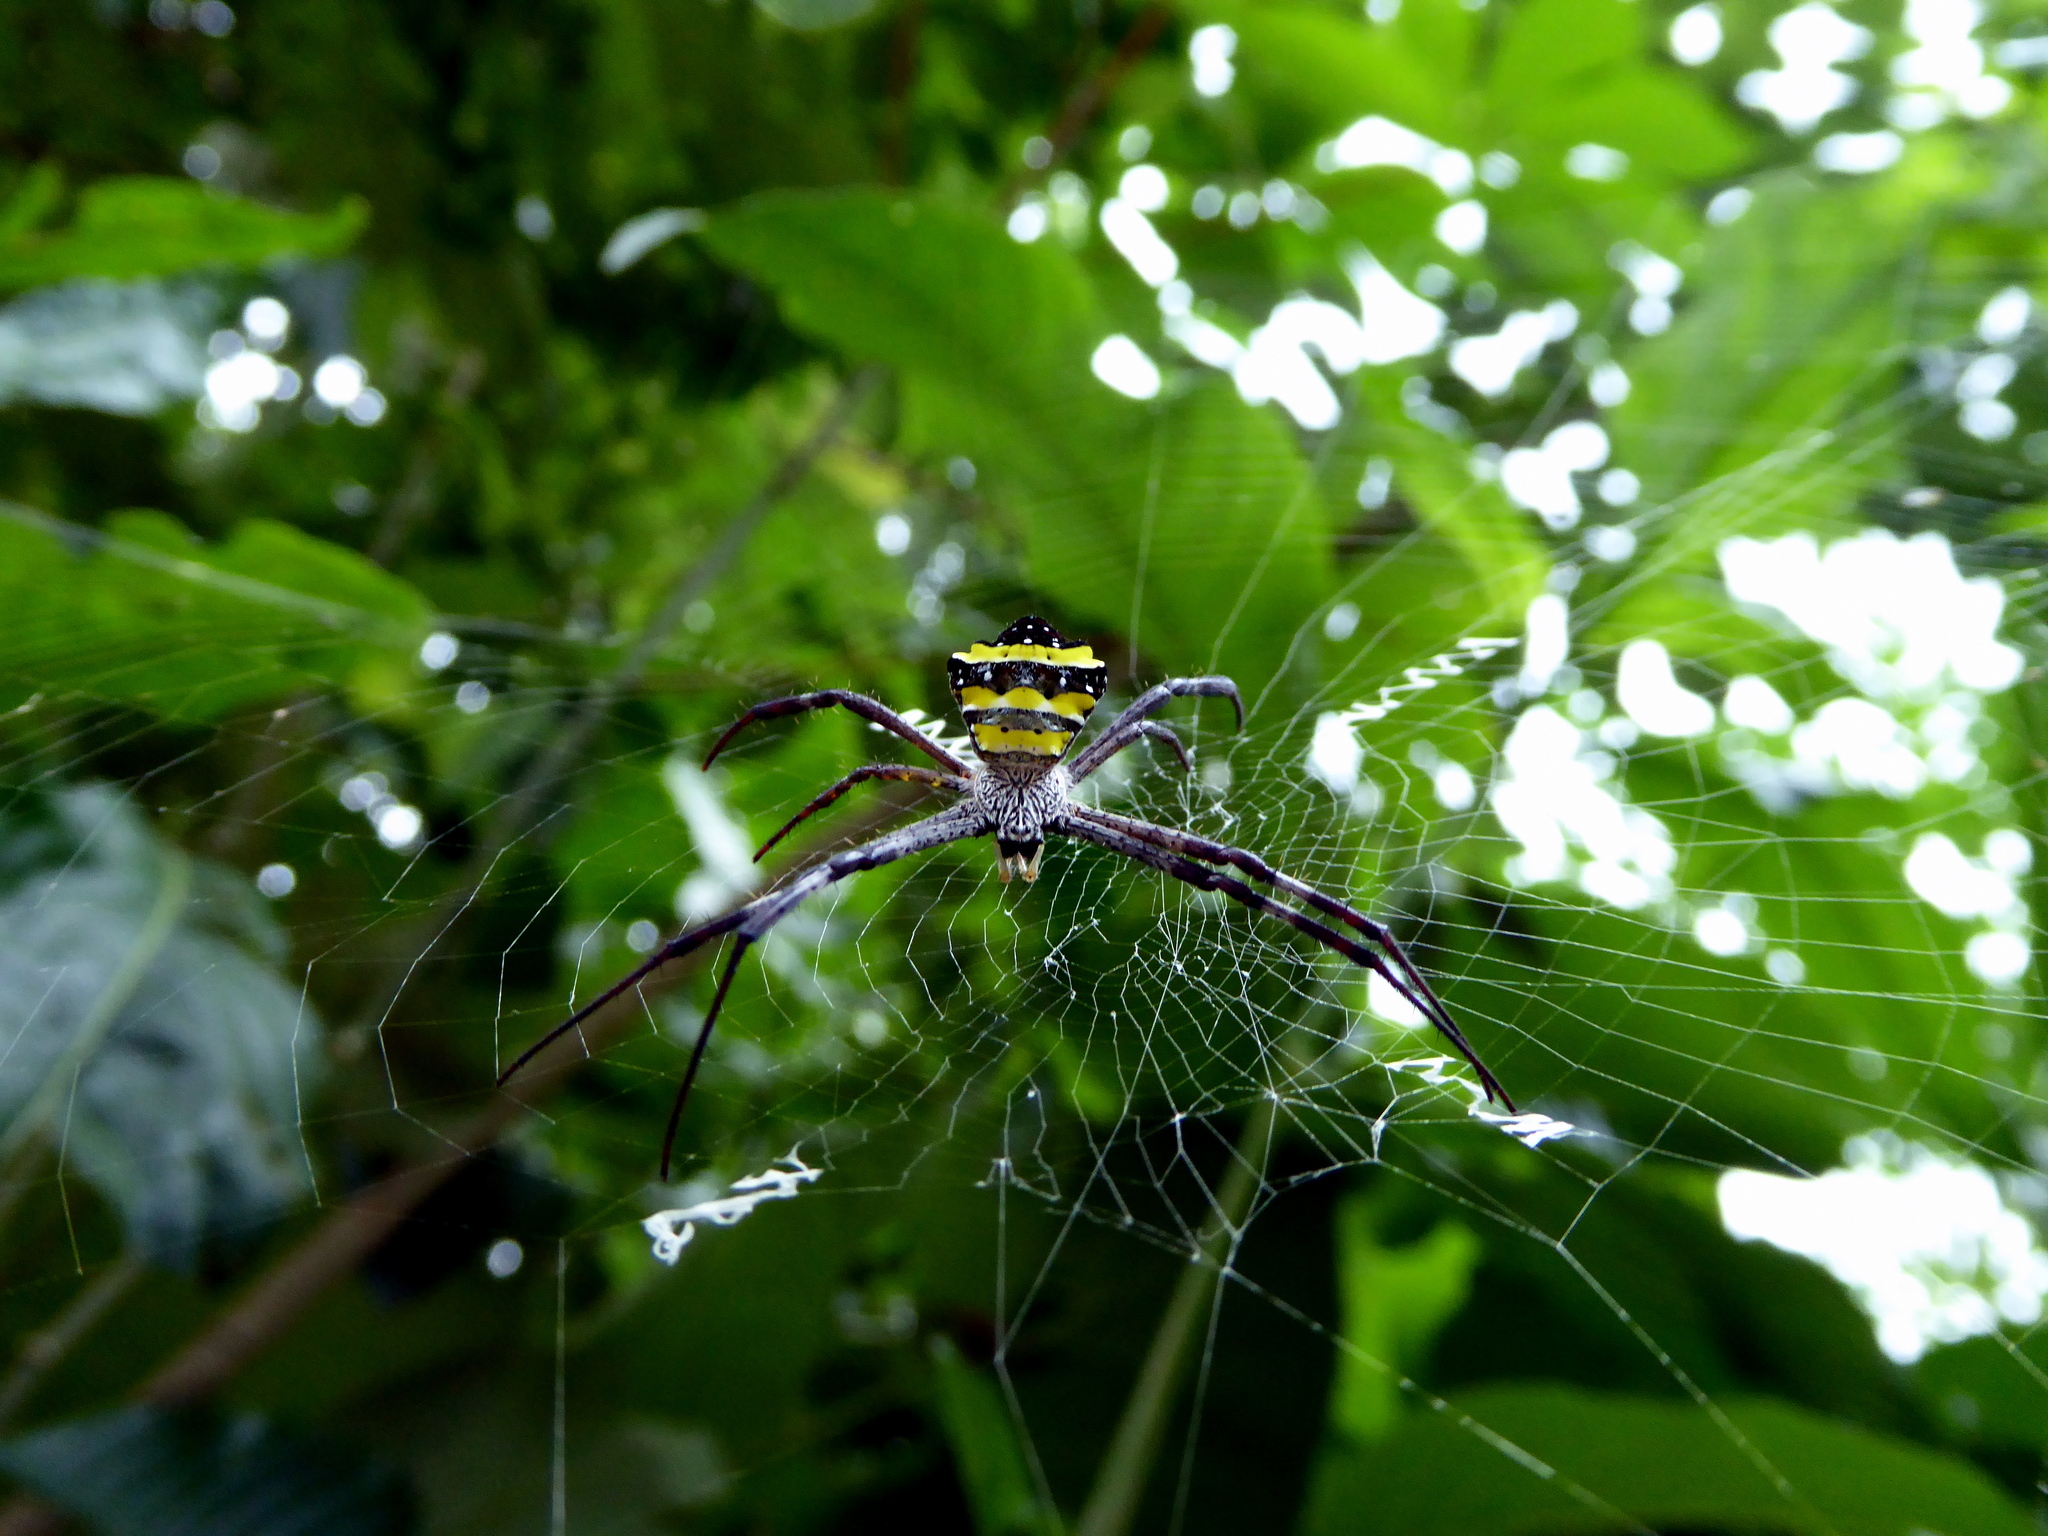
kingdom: Animalia
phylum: Arthropoda
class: Arachnida
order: Araneae
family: Araneidae
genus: Argiope
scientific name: Argiope taprobanica
